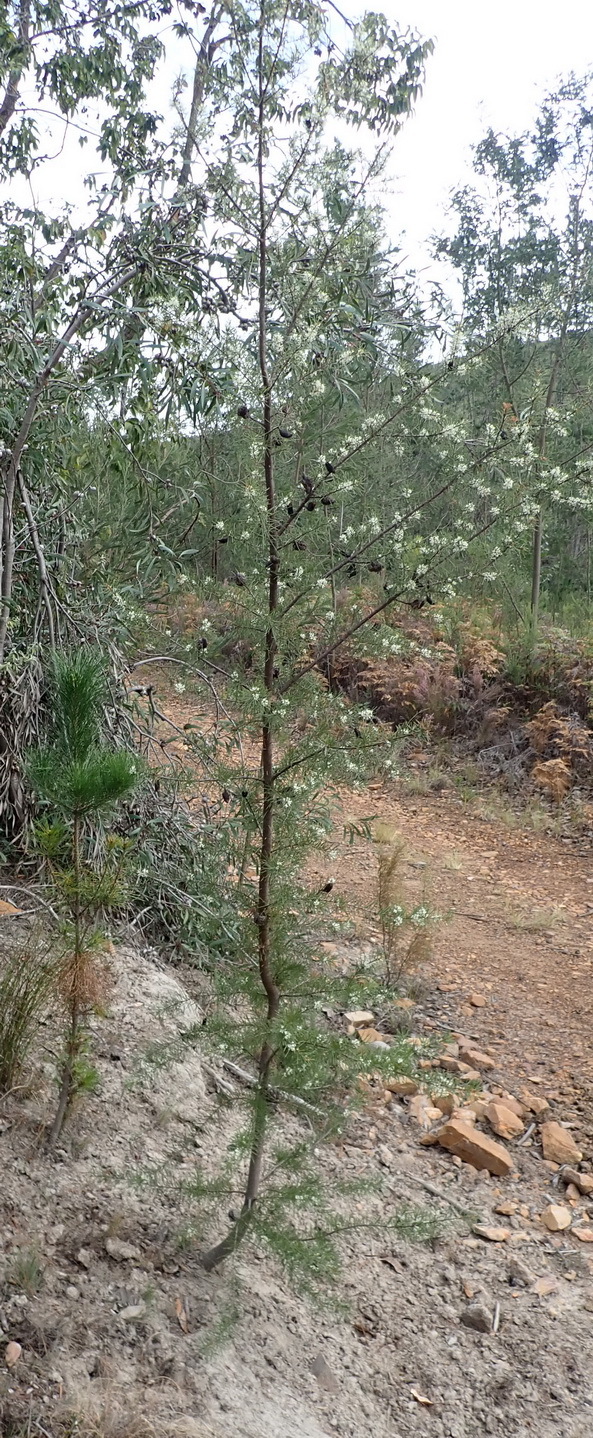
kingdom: Plantae
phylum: Tracheophyta
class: Magnoliopsida
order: Proteales
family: Proteaceae
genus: Hakea
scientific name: Hakea sericea
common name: Needle bush
